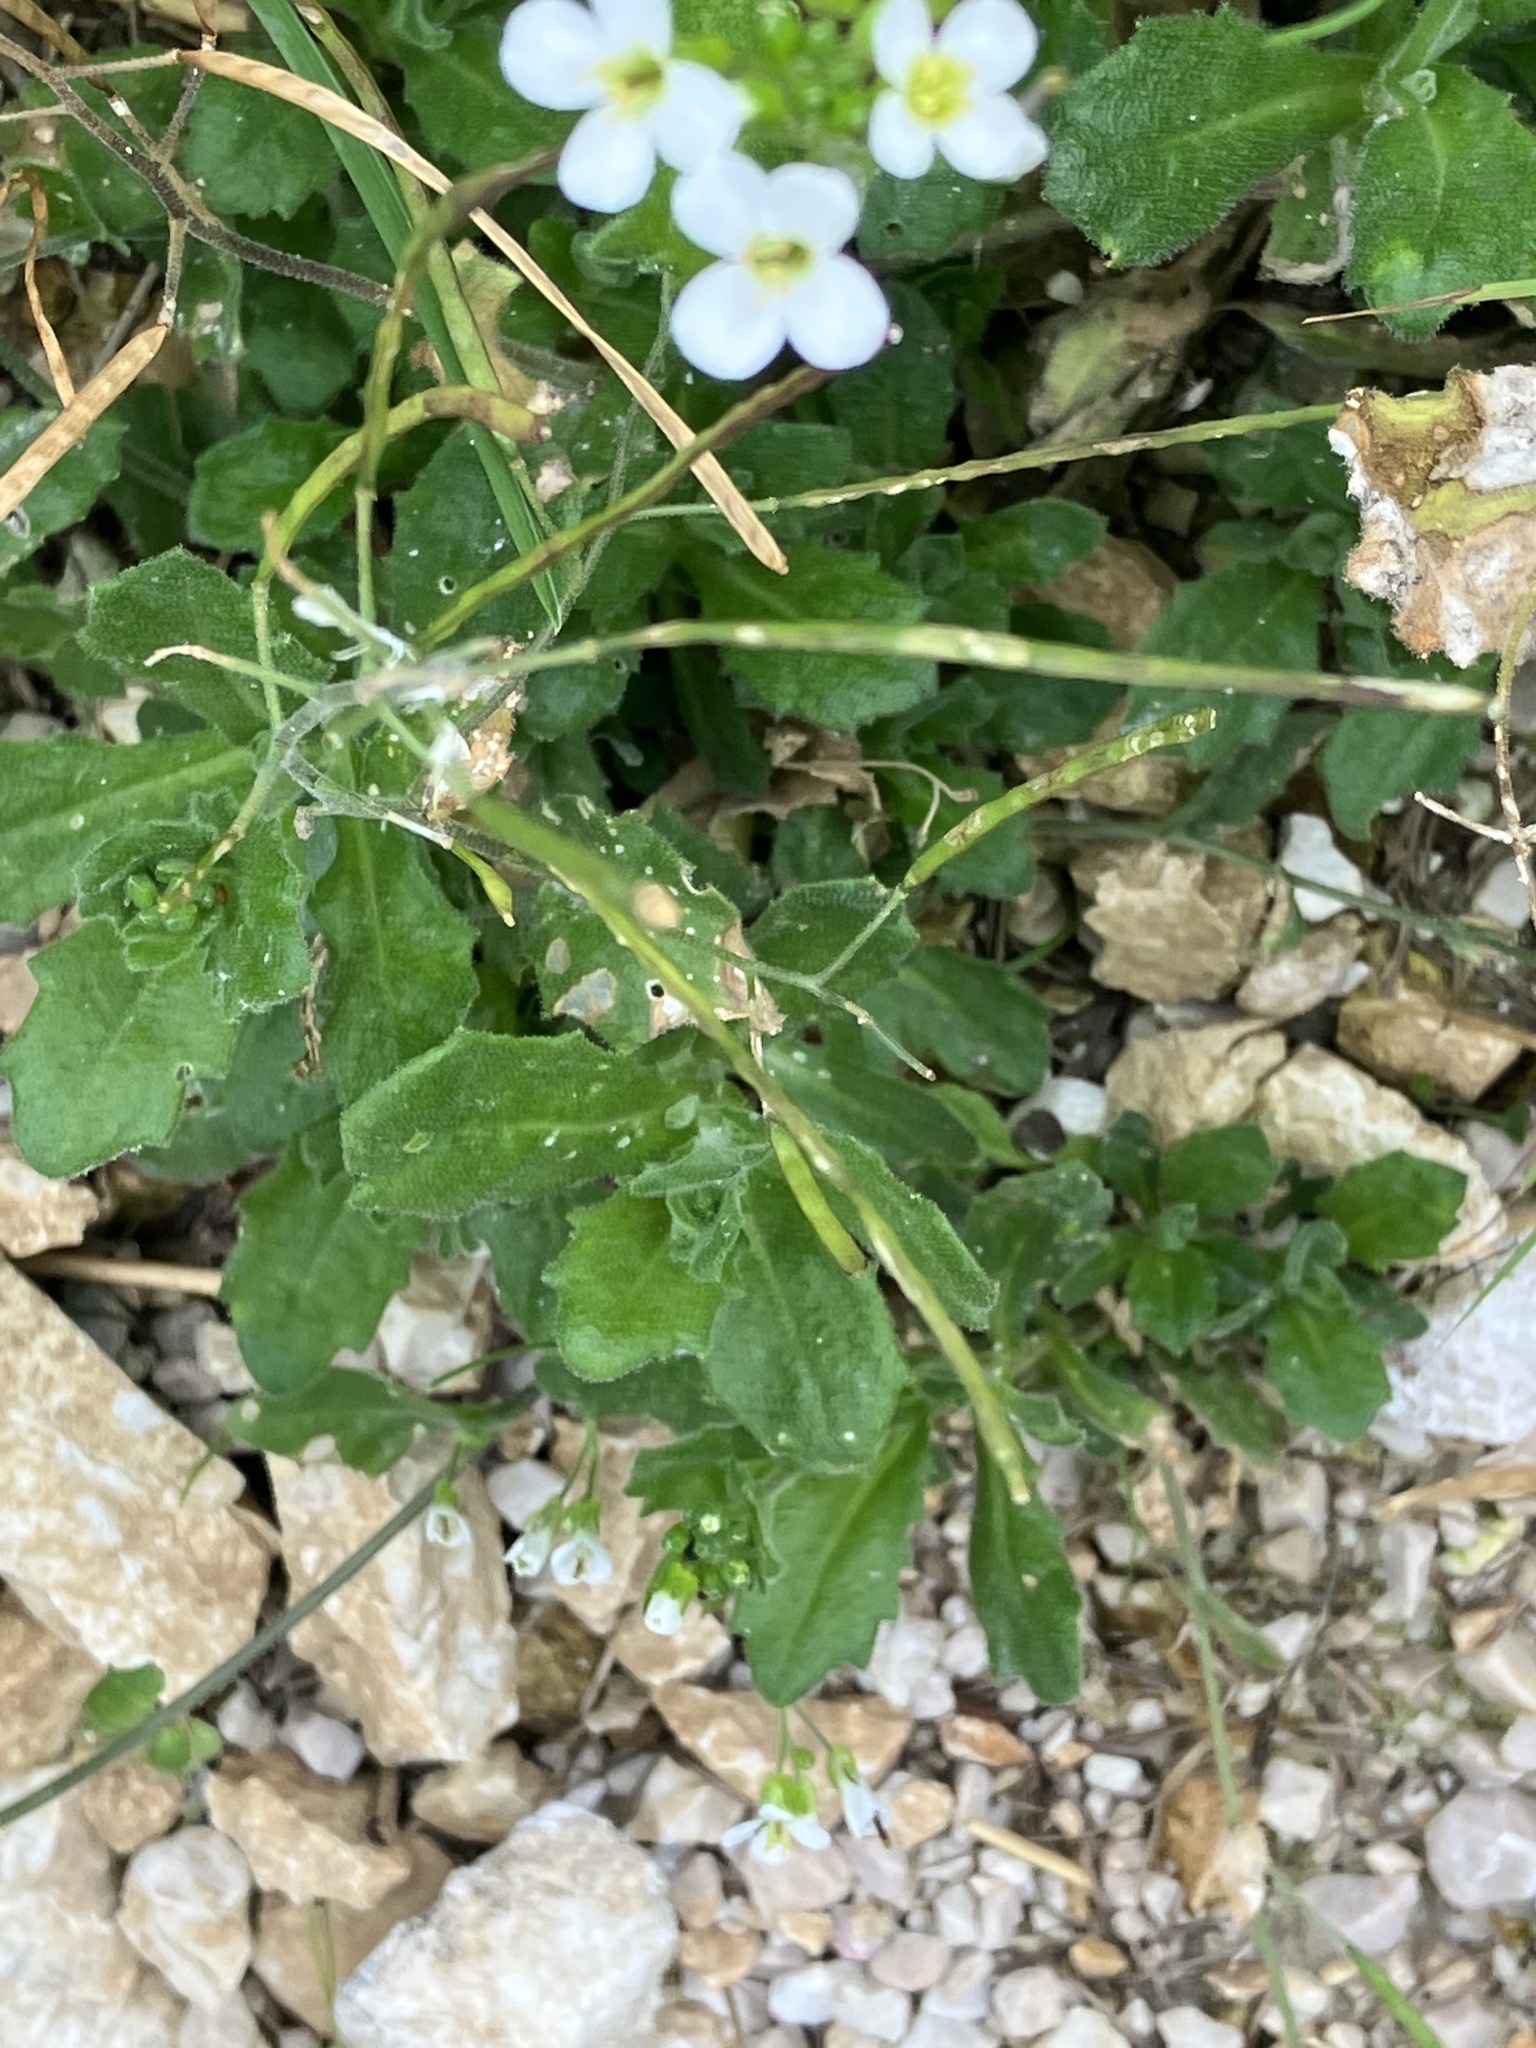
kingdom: Plantae
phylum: Tracheophyta
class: Magnoliopsida
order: Brassicales
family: Brassicaceae
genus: Arabis
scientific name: Arabis alpina
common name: Alpine rock-cress
